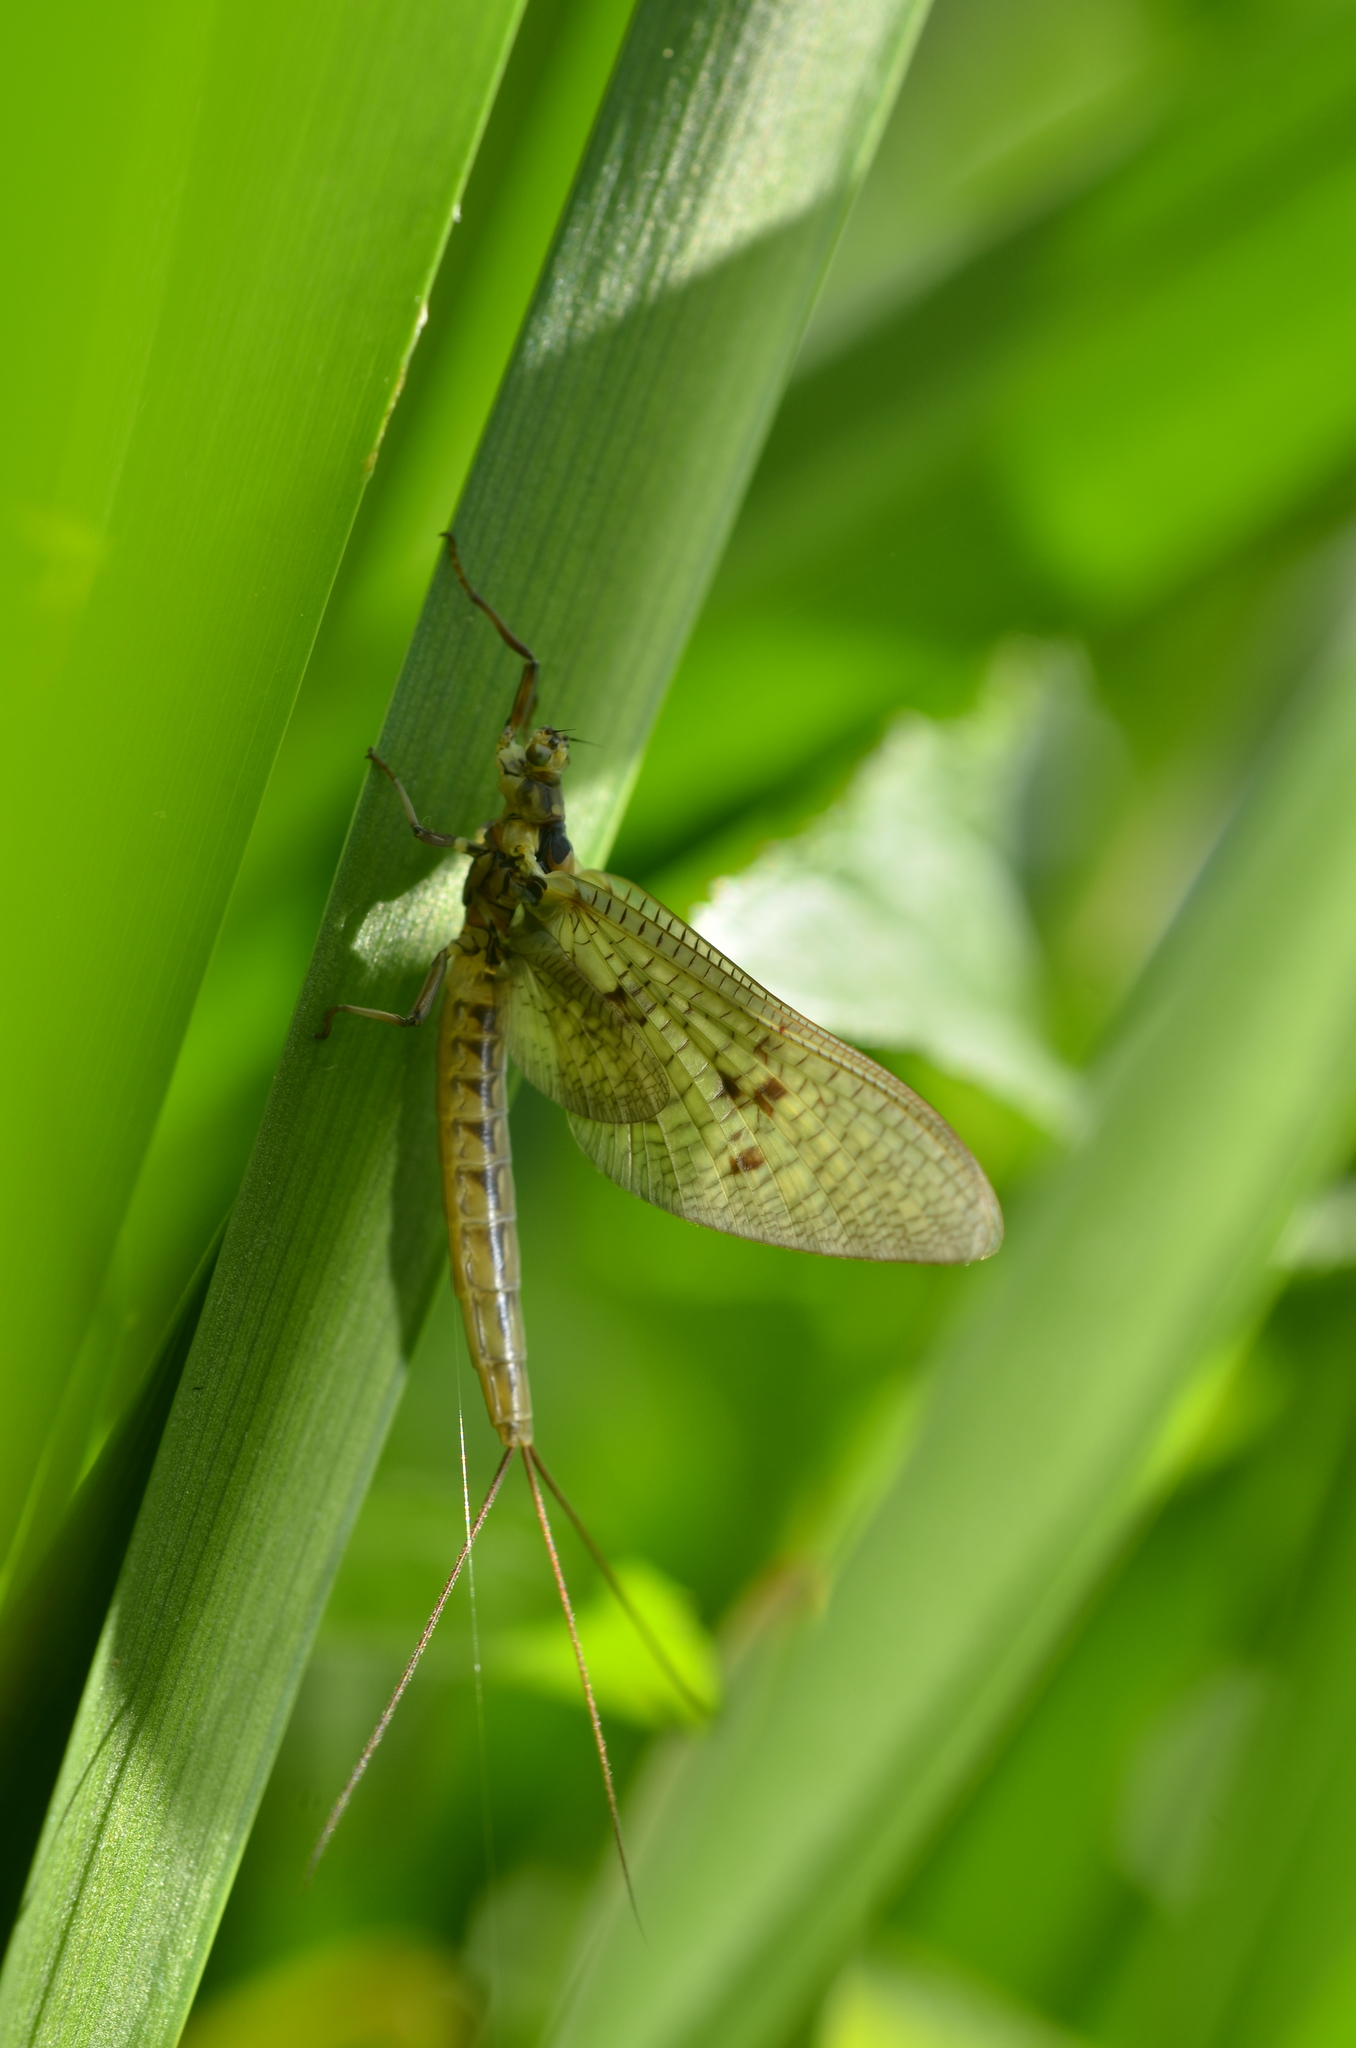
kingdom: Animalia
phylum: Arthropoda
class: Insecta
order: Ephemeroptera
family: Ephemeridae
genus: Ephemera
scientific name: Ephemera vulgata
